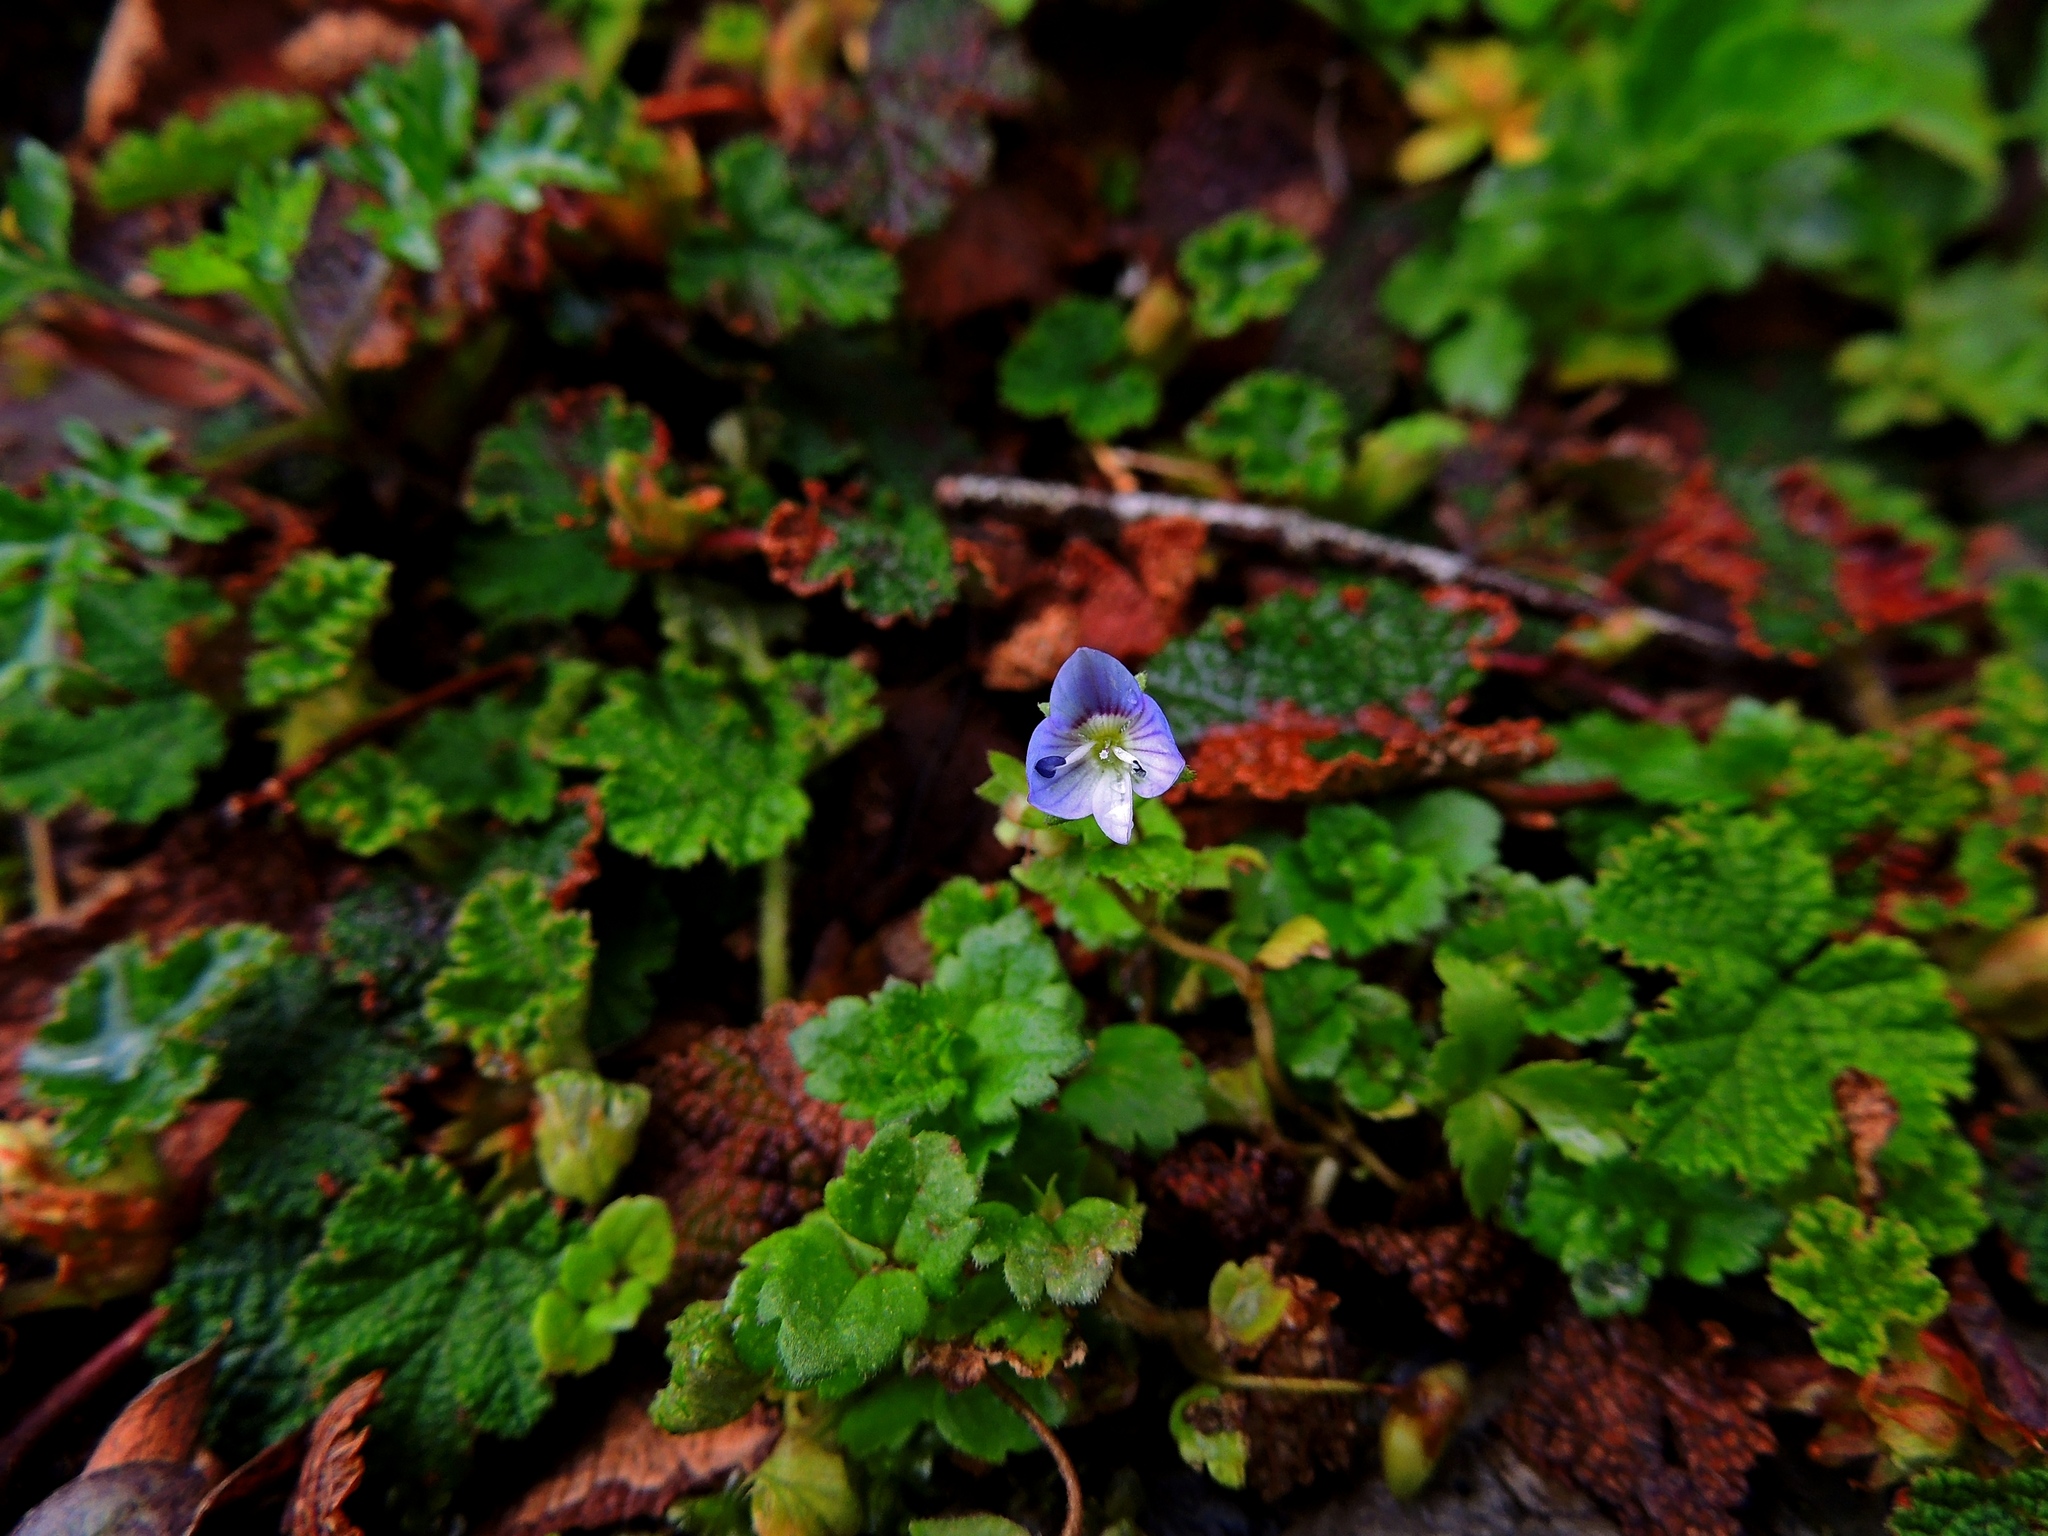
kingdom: Plantae
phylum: Tracheophyta
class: Magnoliopsida
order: Lamiales
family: Plantaginaceae
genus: Veronica
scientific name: Veronica persica
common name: Common field-speedwell
